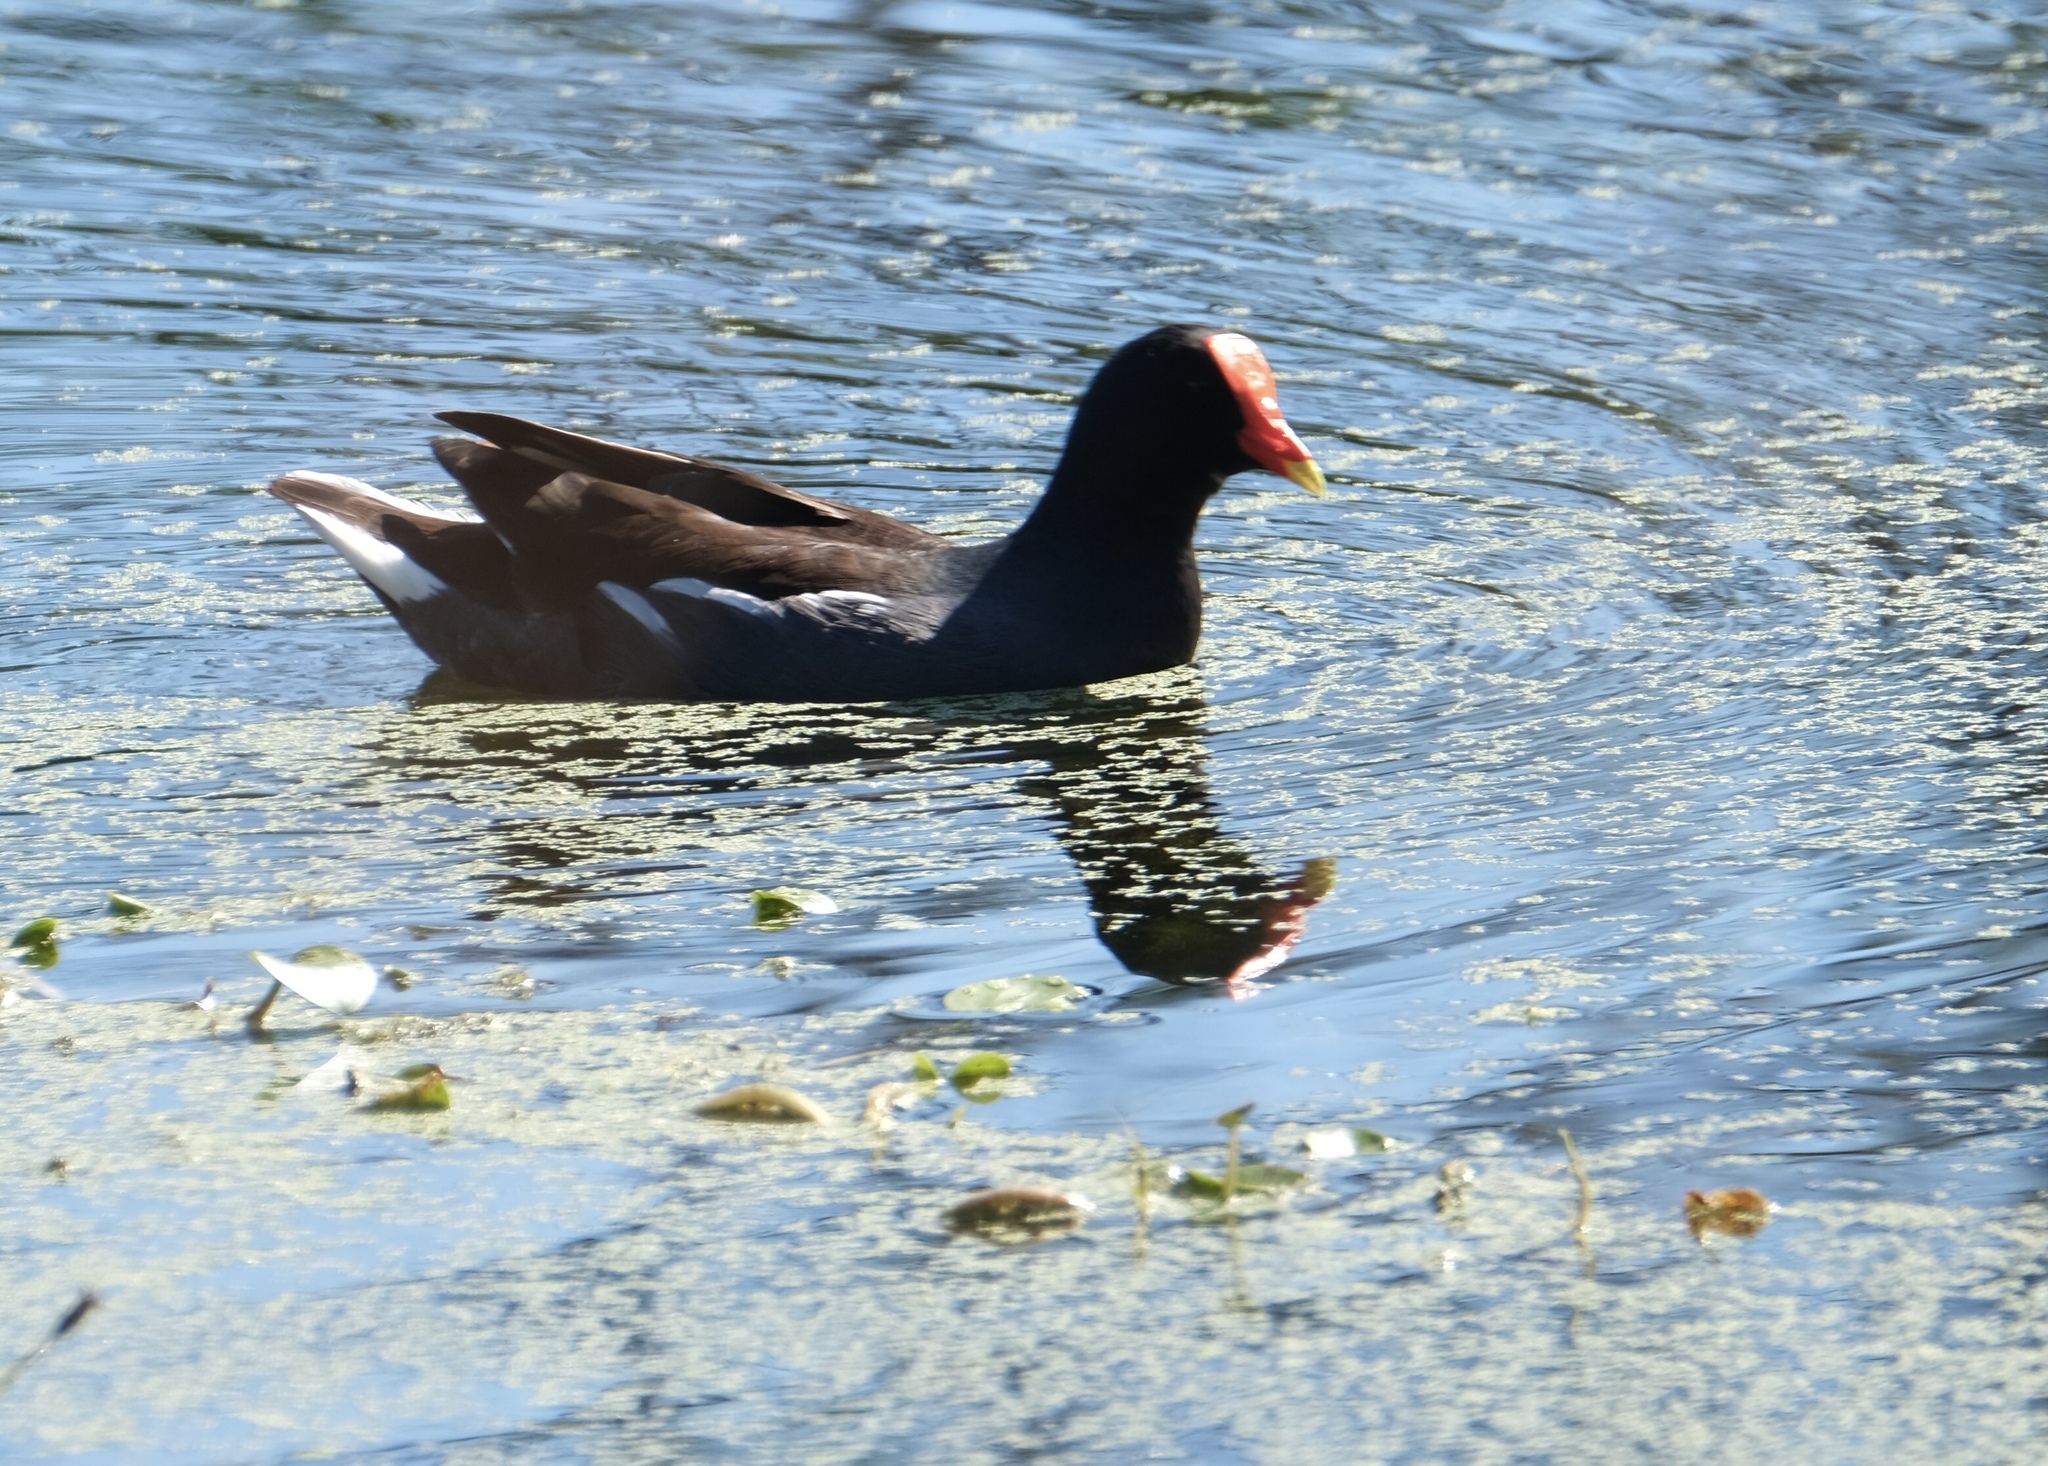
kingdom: Animalia
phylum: Chordata
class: Aves
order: Gruiformes
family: Rallidae
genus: Gallinula
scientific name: Gallinula chloropus
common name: Common moorhen
